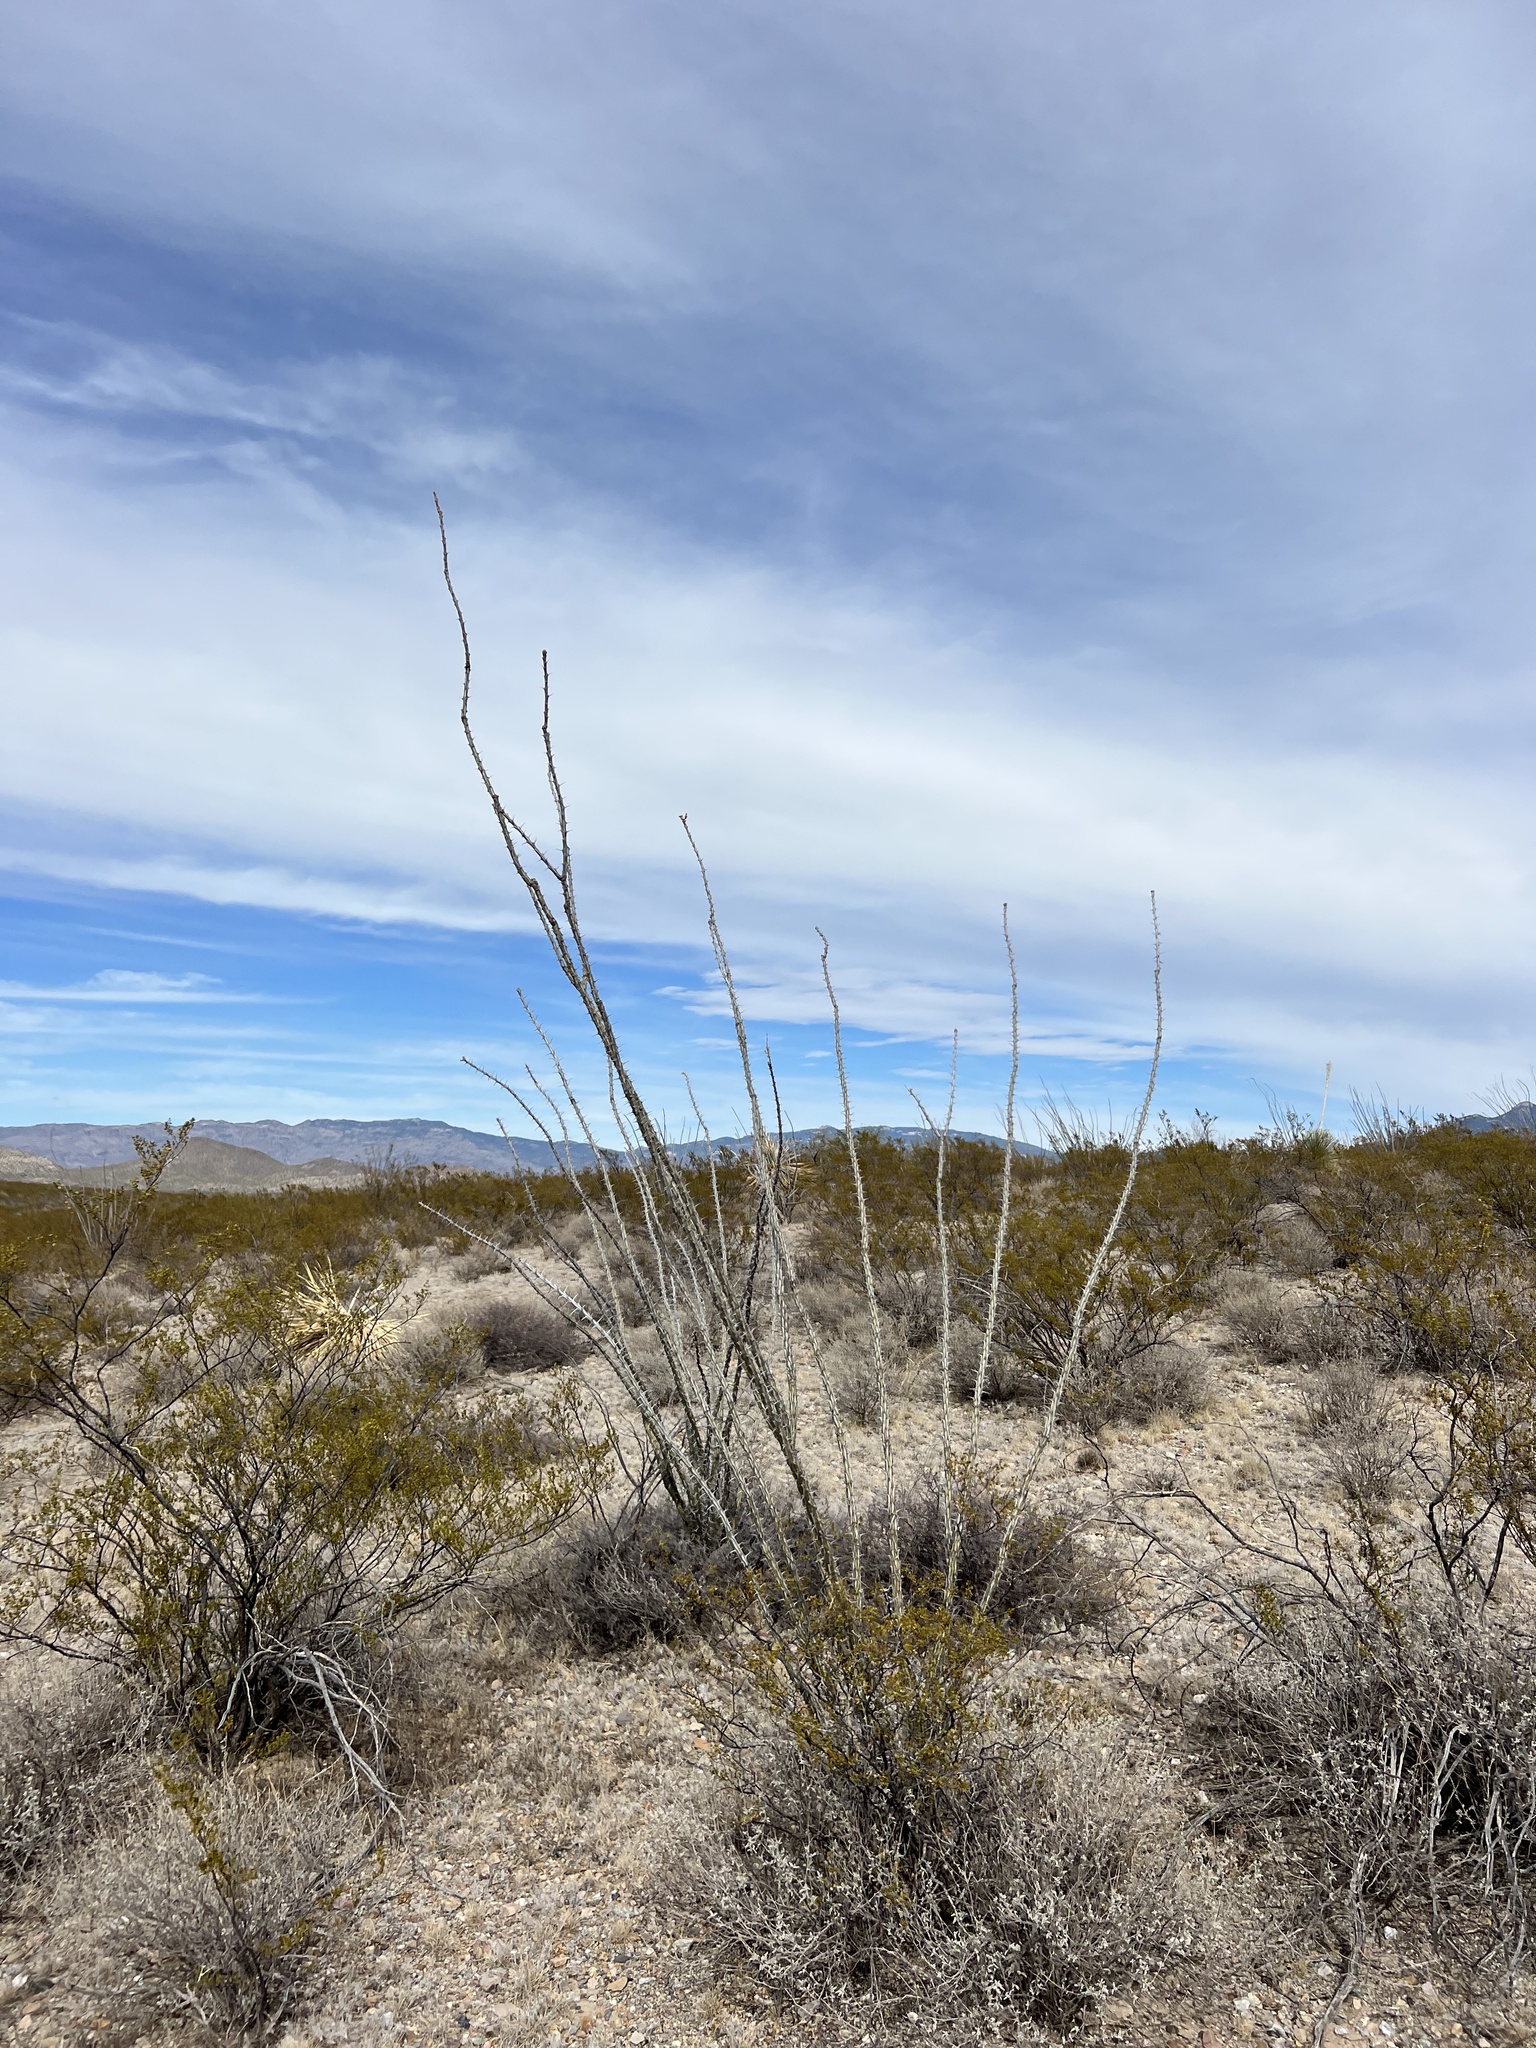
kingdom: Plantae
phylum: Tracheophyta
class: Magnoliopsida
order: Ericales
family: Fouquieriaceae
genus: Fouquieria
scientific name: Fouquieria splendens
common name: Vine-cactus
